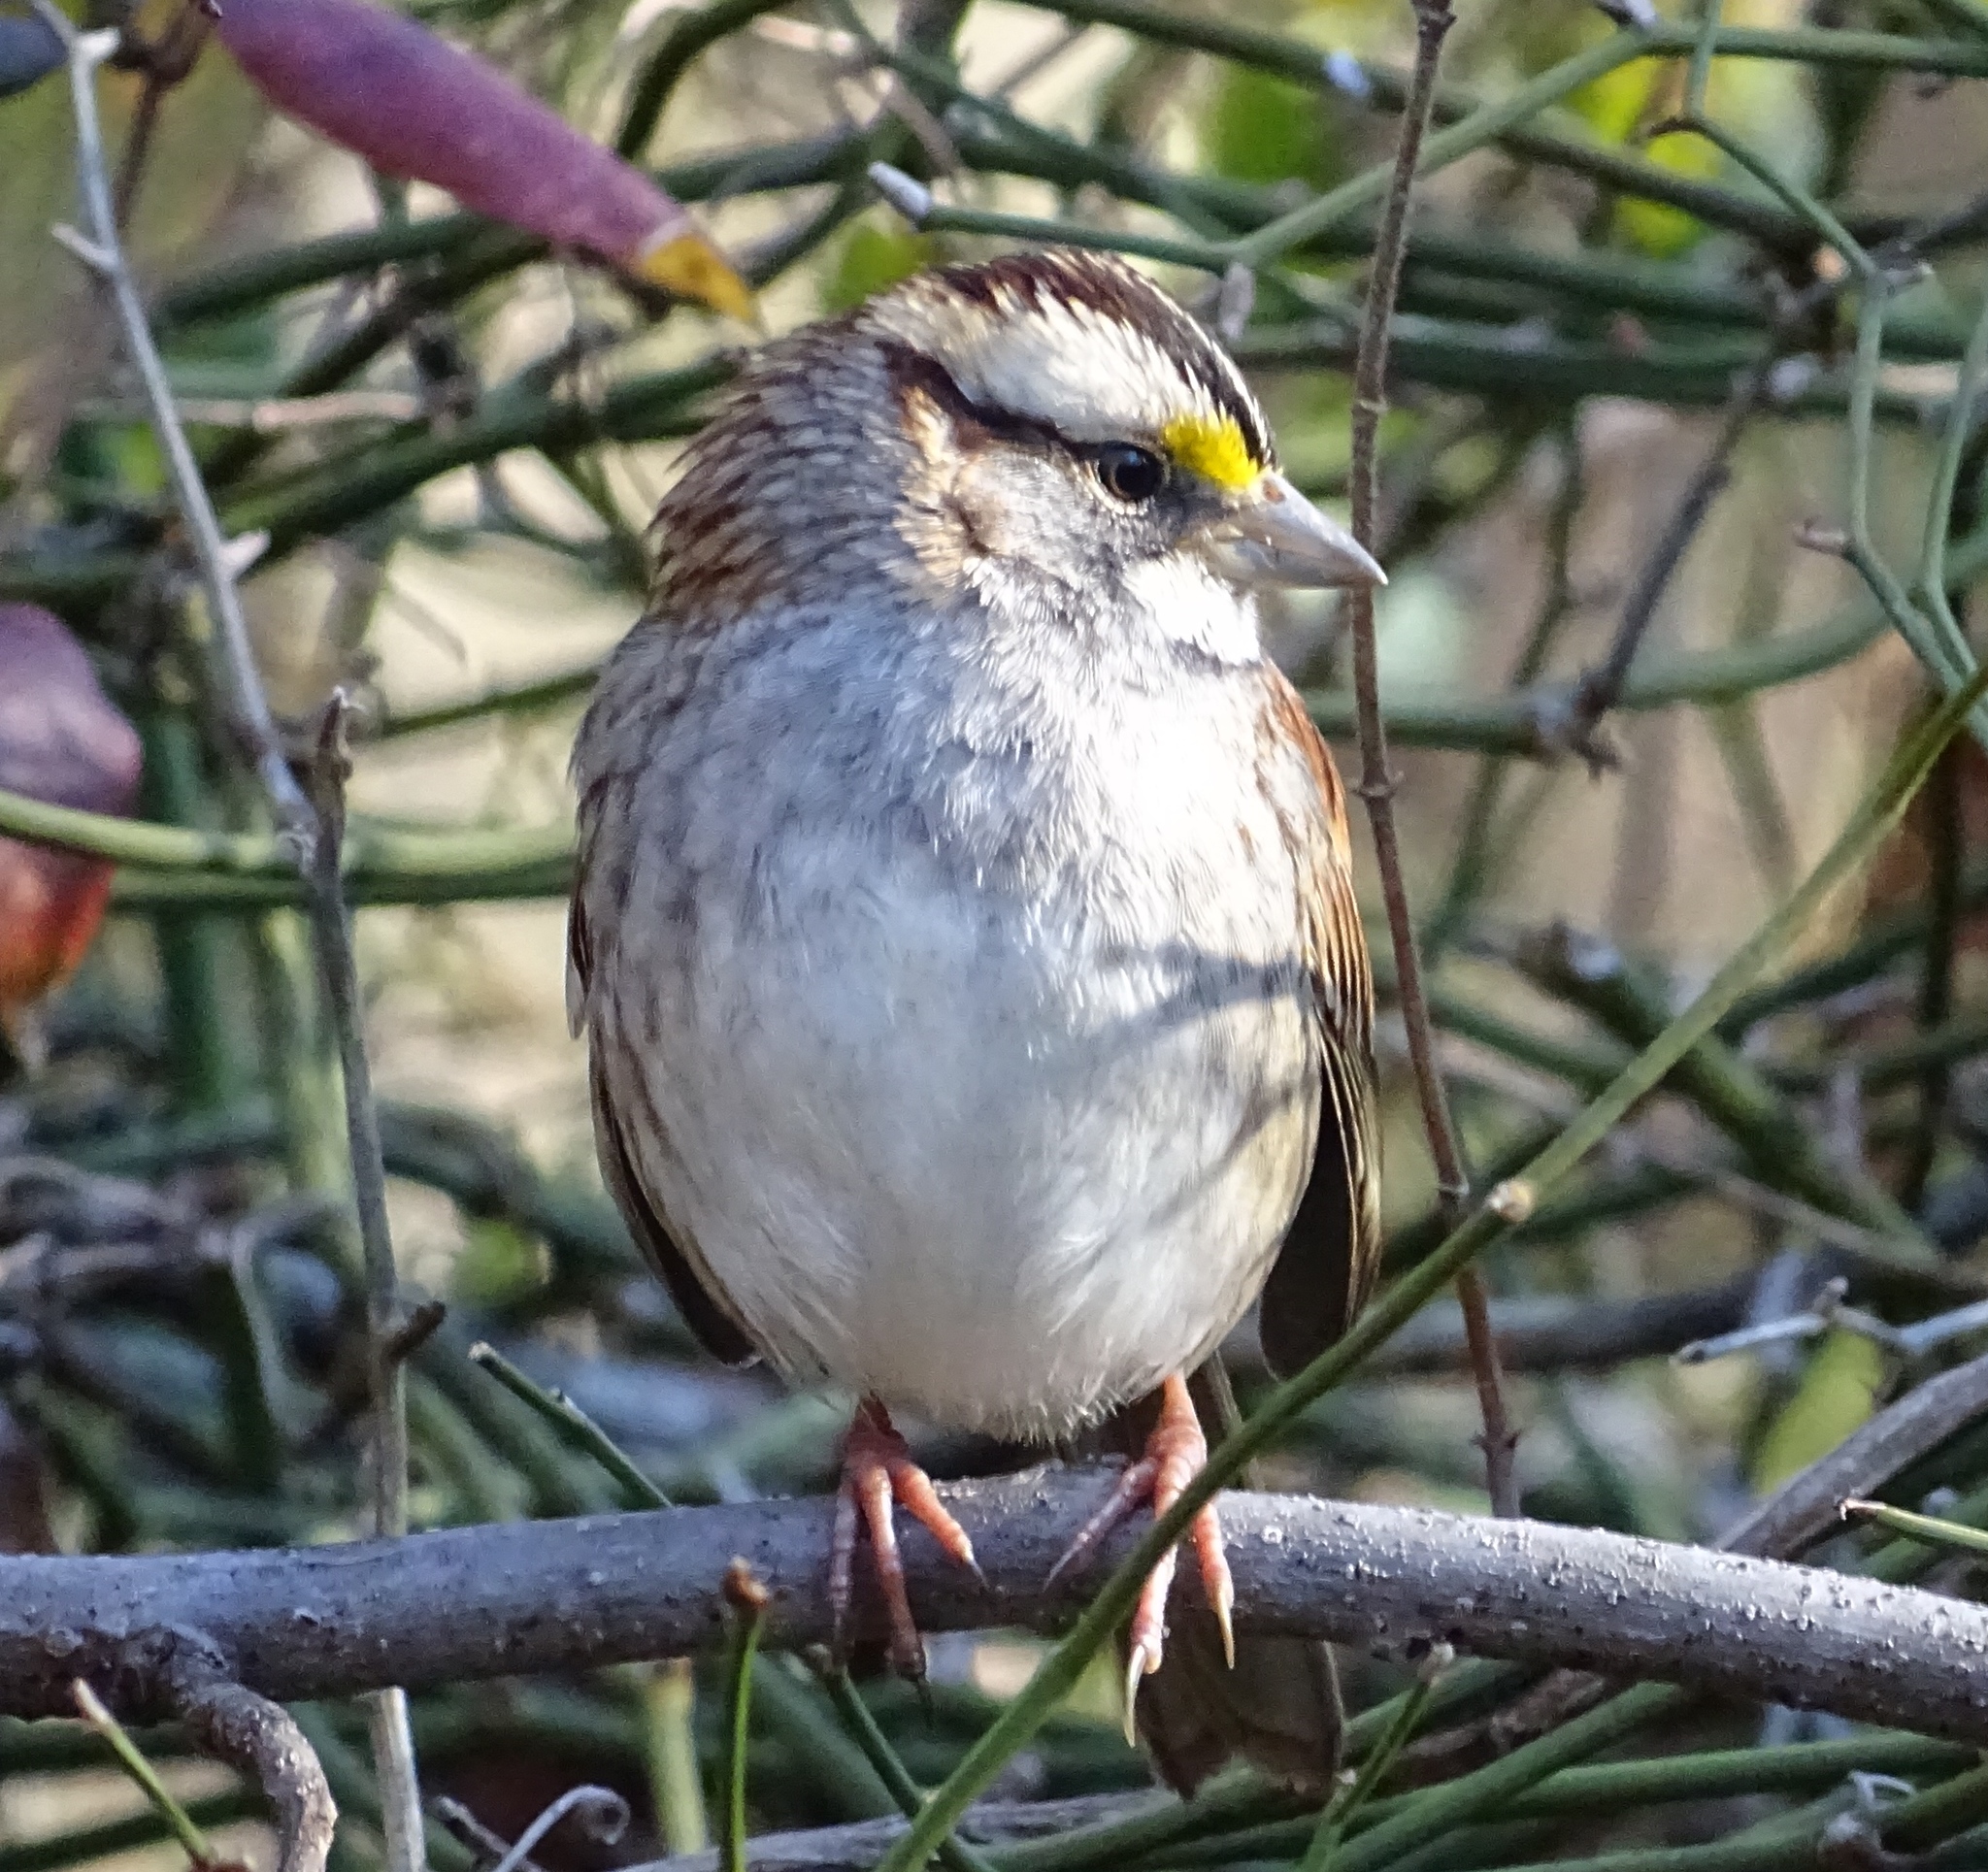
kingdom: Animalia
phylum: Chordata
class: Aves
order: Passeriformes
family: Passerellidae
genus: Zonotrichia
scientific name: Zonotrichia albicollis
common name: White-throated sparrow
